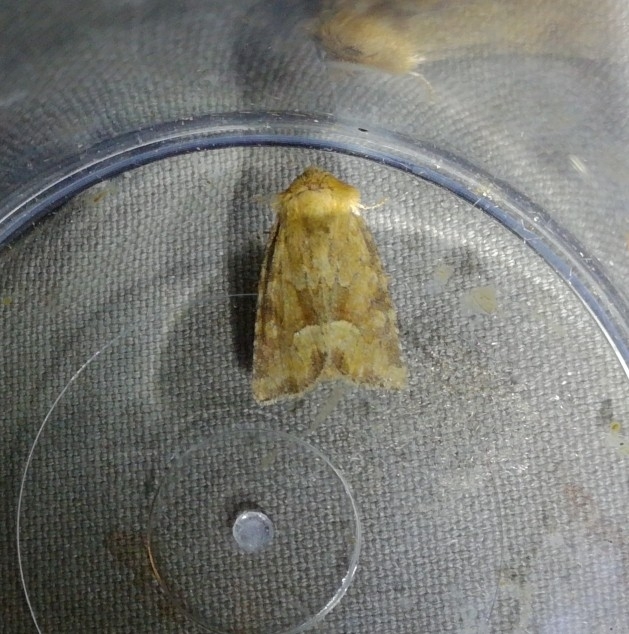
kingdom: Animalia
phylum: Arthropoda
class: Insecta
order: Lepidoptera
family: Noctuidae
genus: Oligia
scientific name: Oligia fasciuncula
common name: Middle-barred minor
